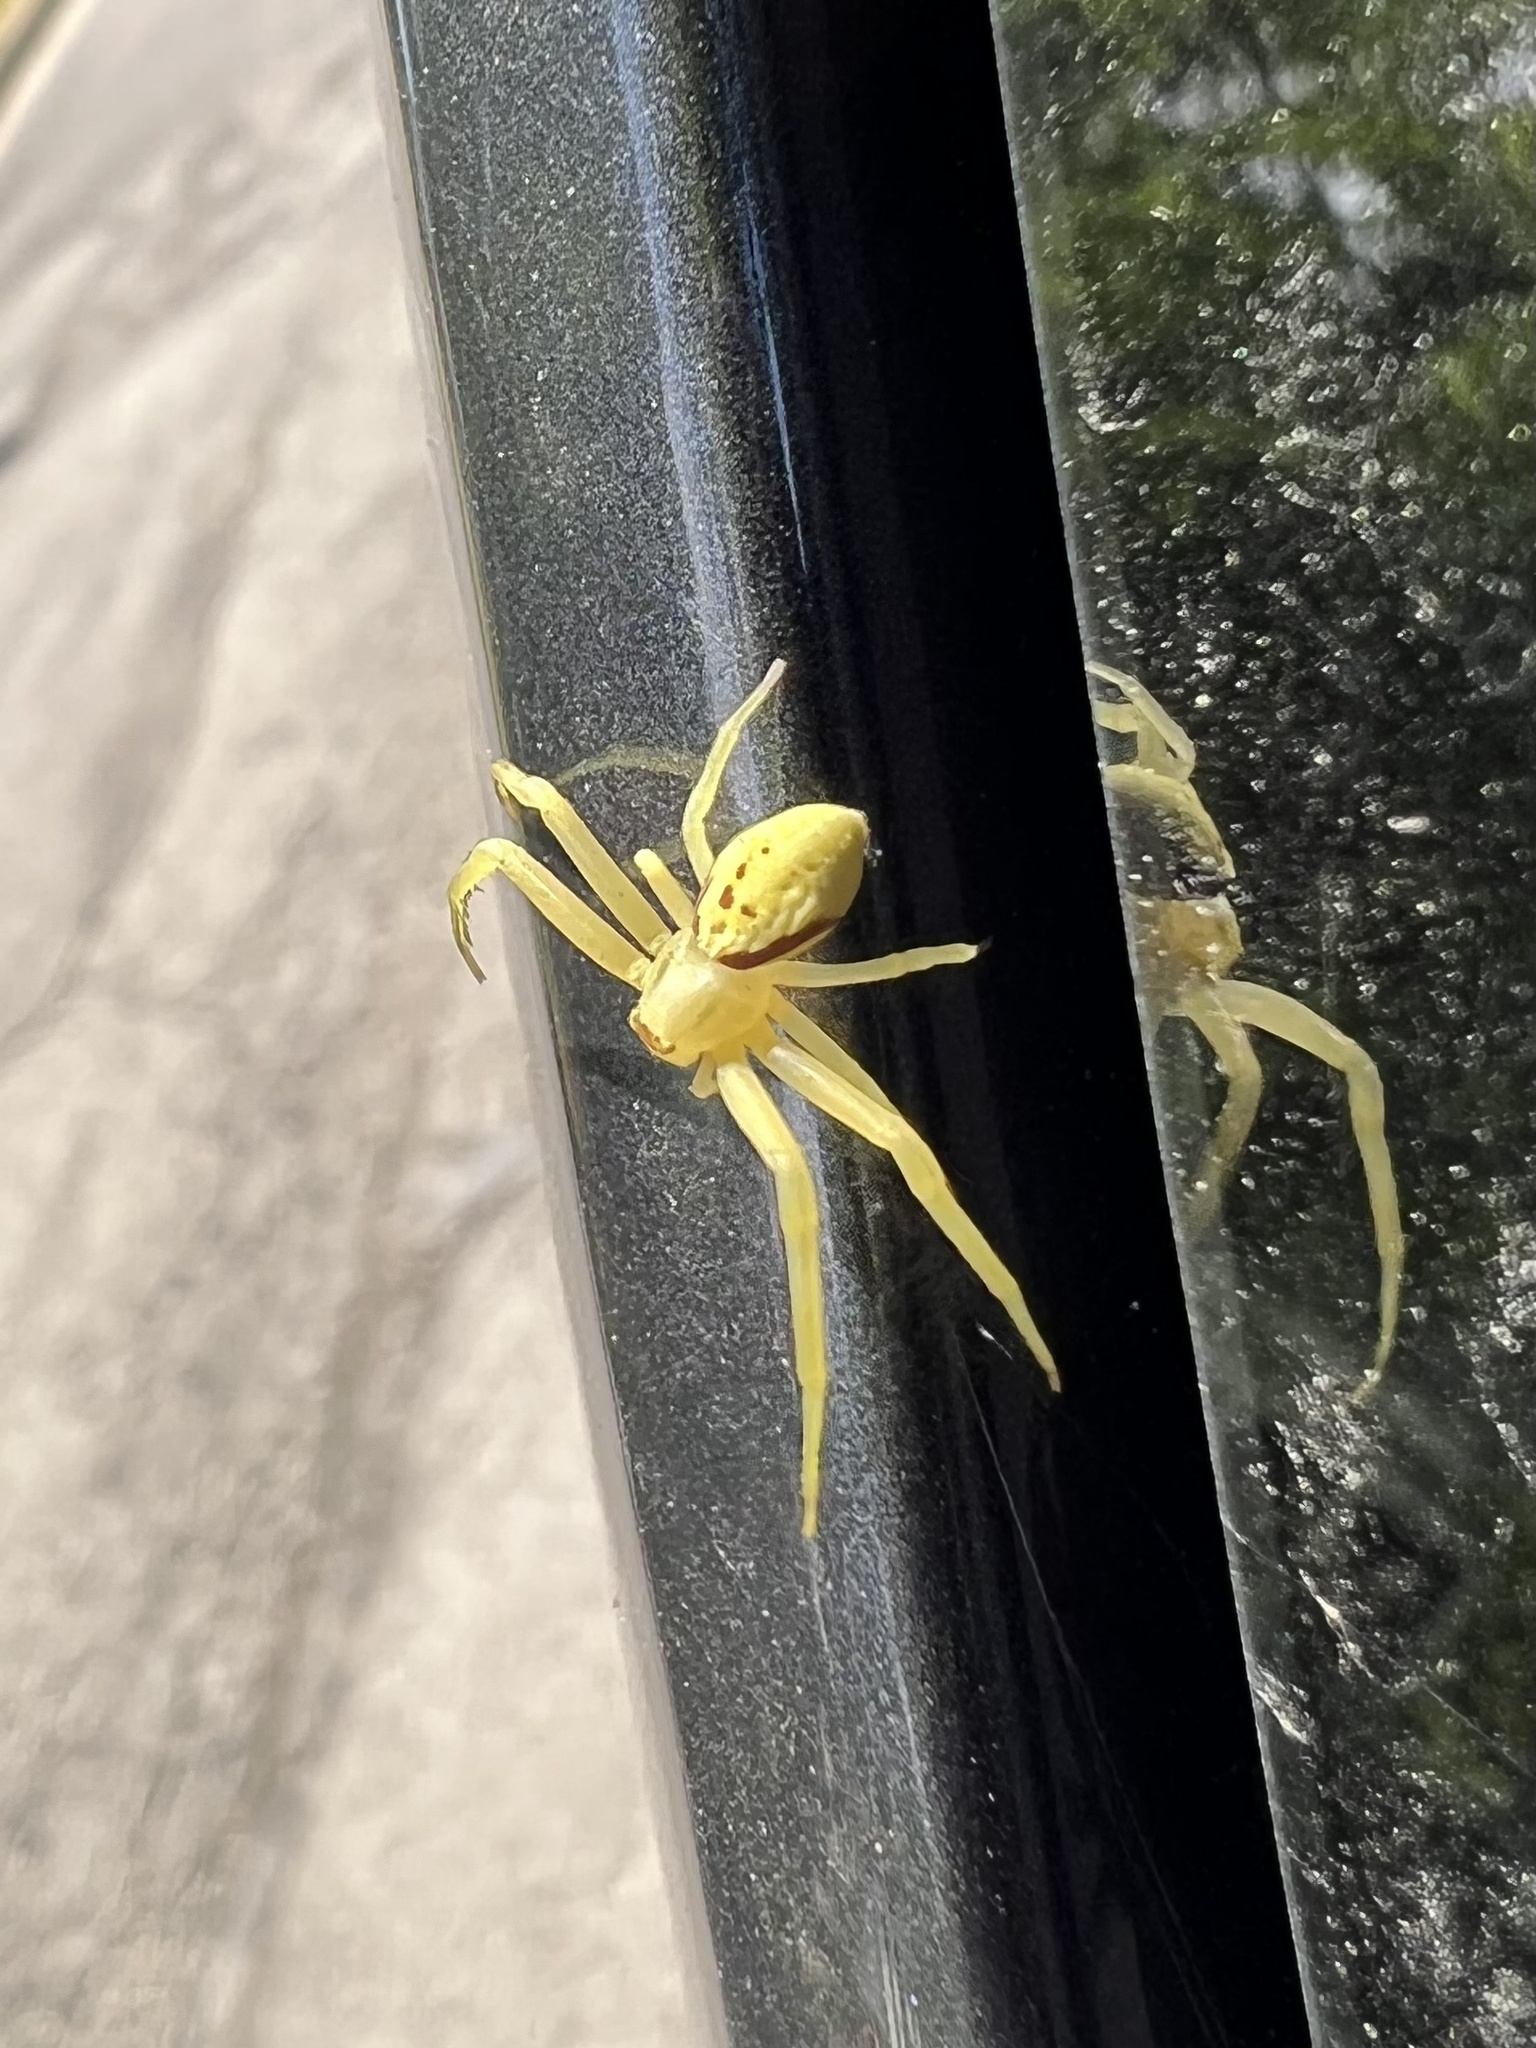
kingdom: Animalia
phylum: Arthropoda
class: Arachnida
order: Araneae
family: Thomisidae
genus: Misumessus
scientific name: Misumessus oblongus
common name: American green crab spider
